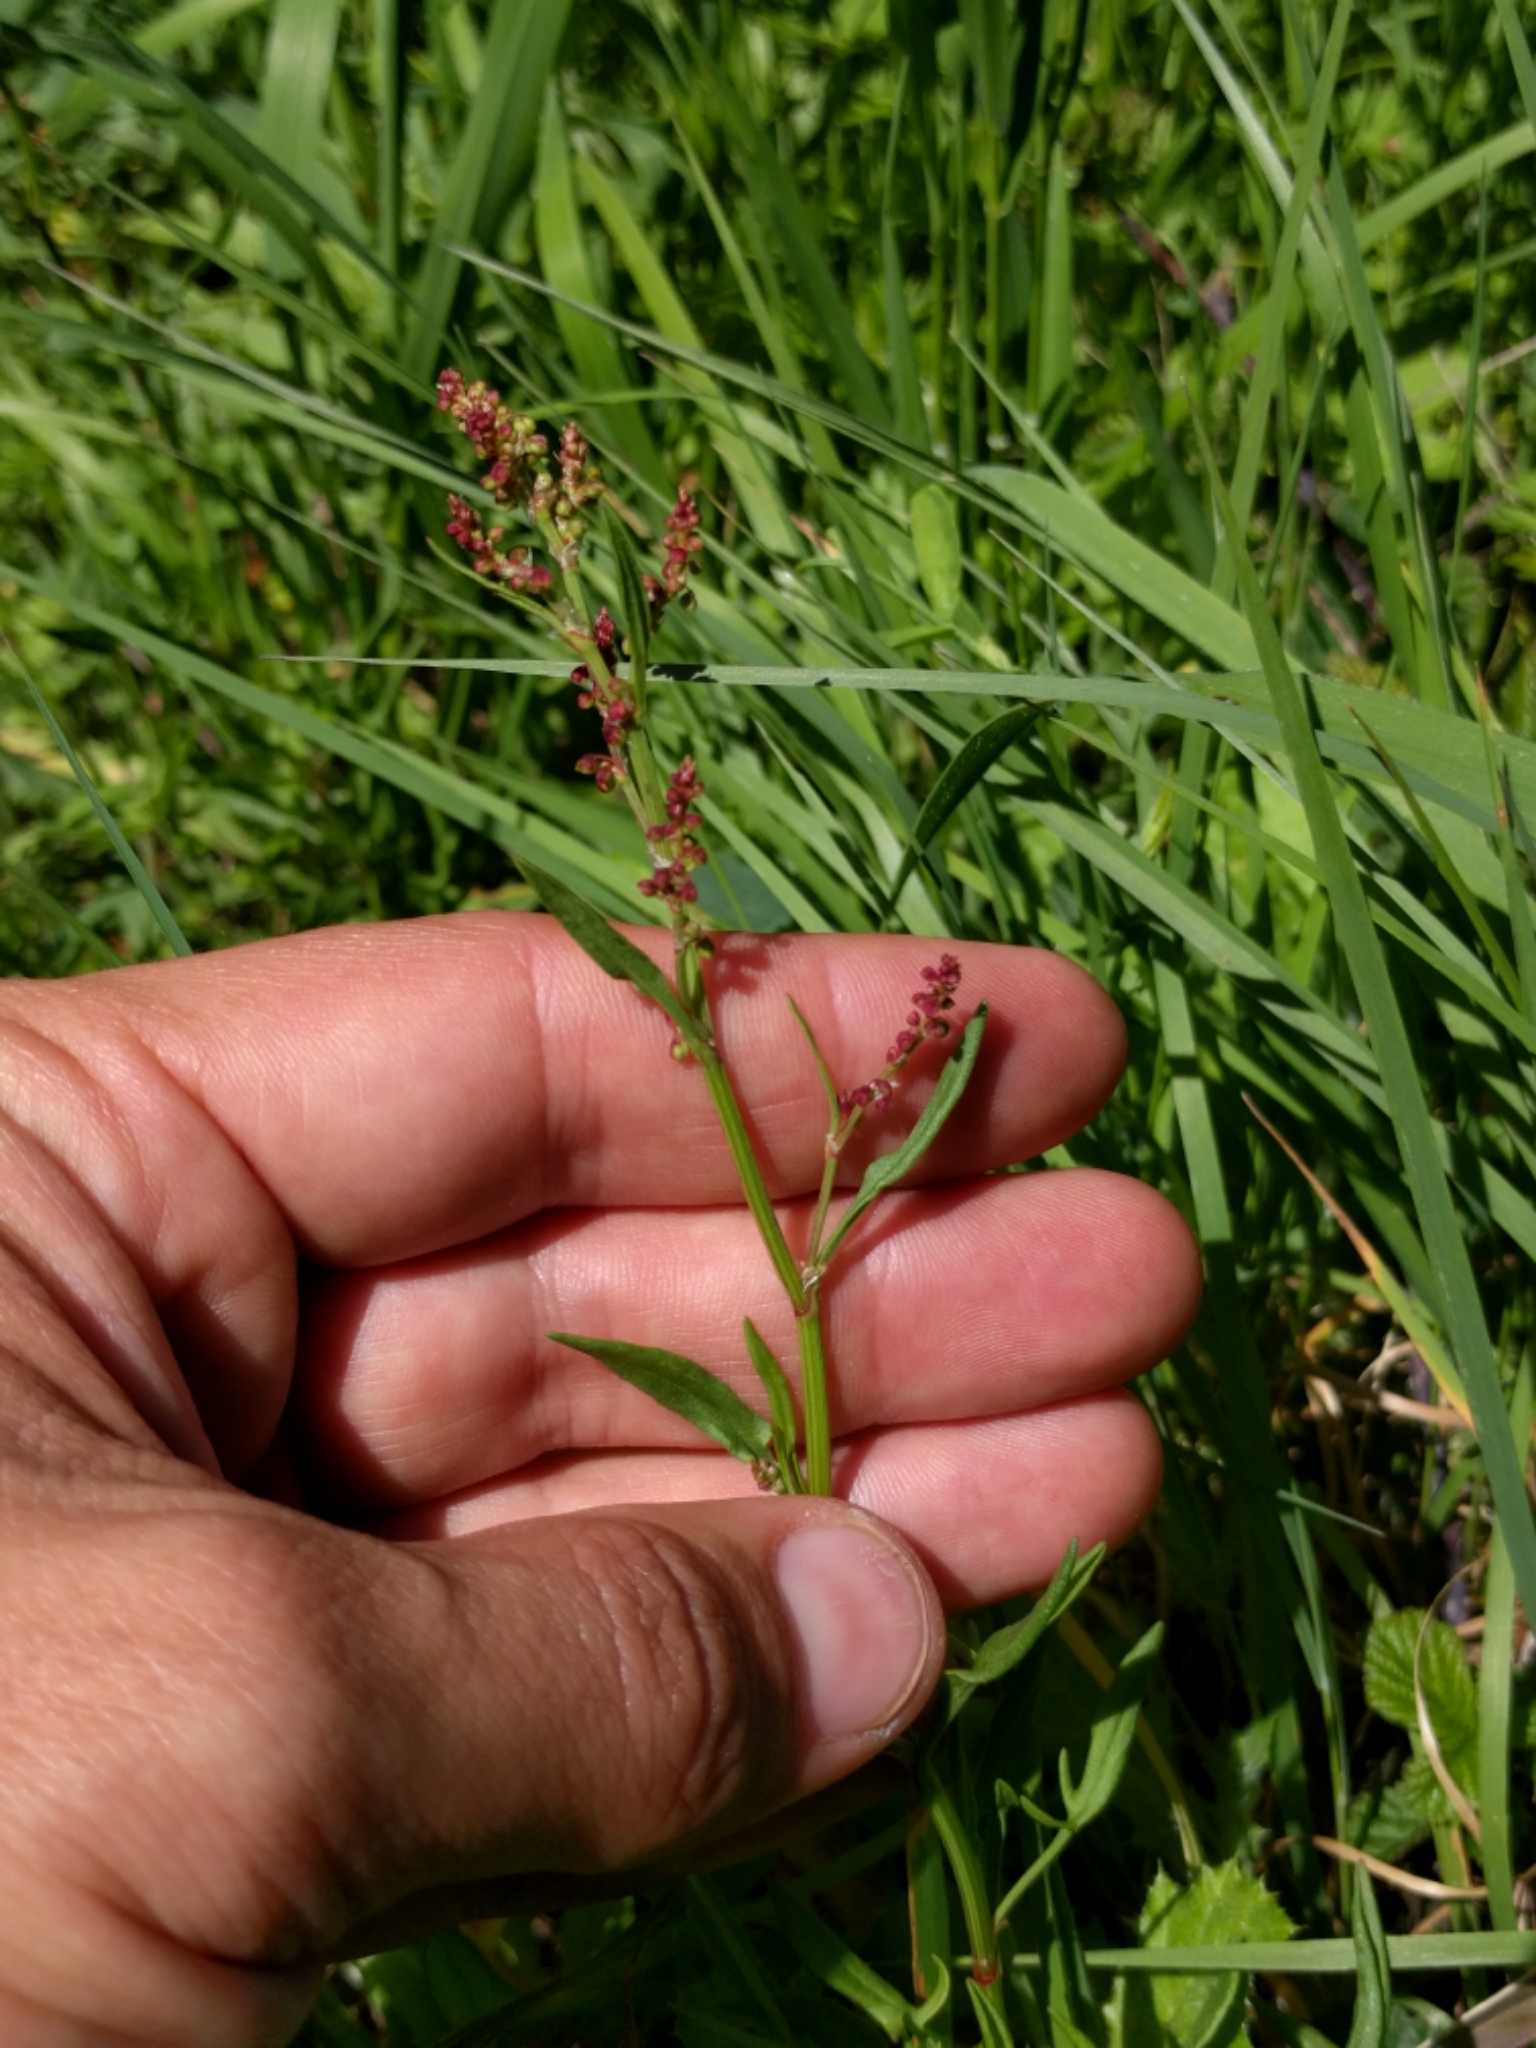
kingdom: Plantae
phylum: Tracheophyta
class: Magnoliopsida
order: Caryophyllales
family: Polygonaceae
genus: Rumex
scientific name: Rumex acetosella
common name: Common sheep sorrel
